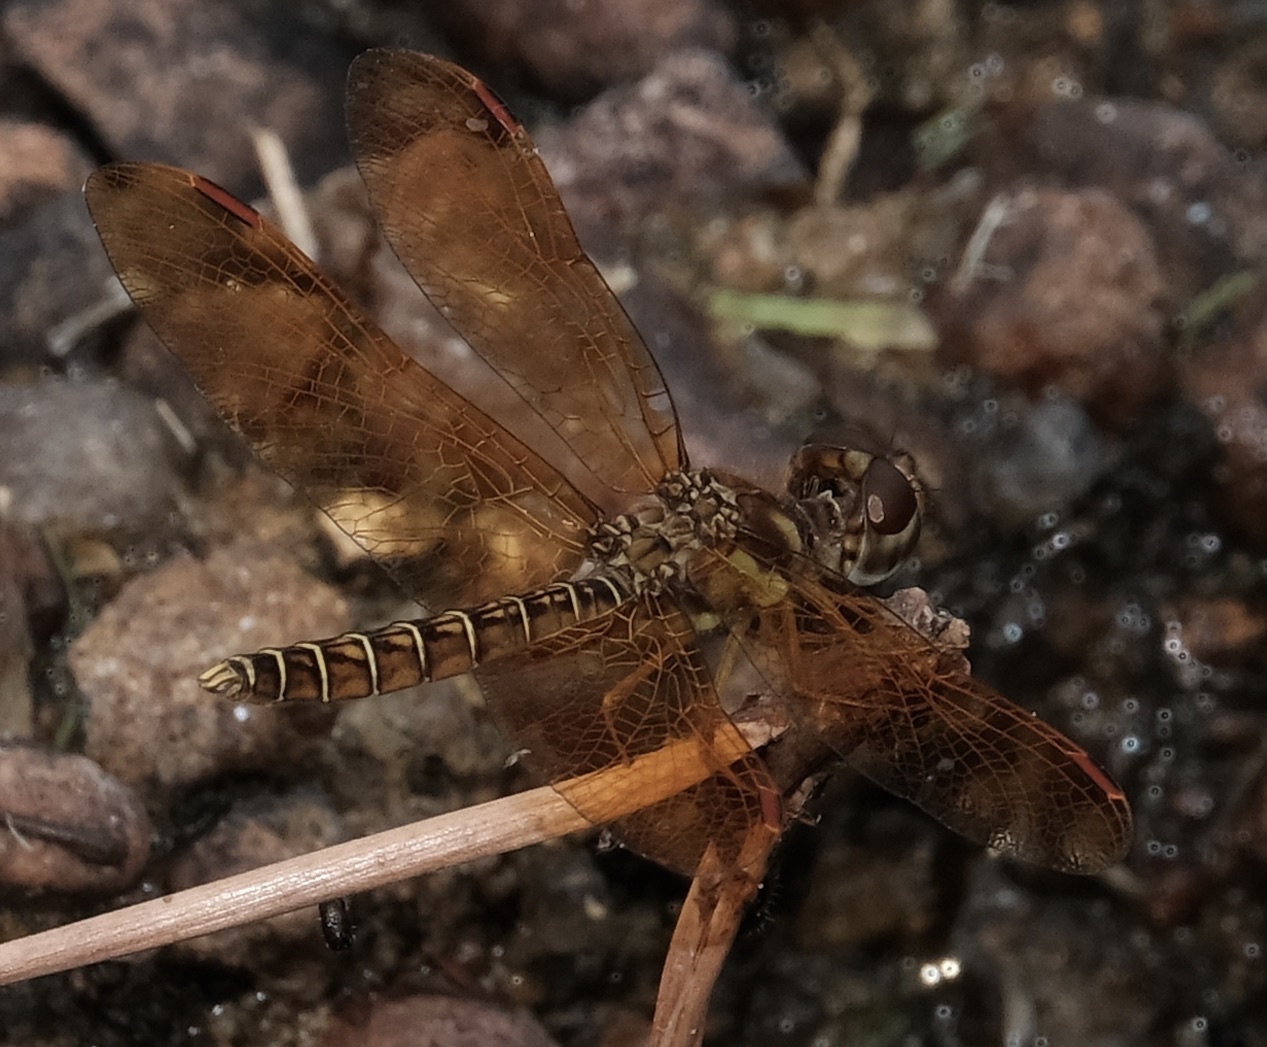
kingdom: Animalia
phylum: Arthropoda
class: Insecta
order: Odonata
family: Libellulidae
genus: Perithemis
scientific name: Perithemis tenera
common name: Eastern amberwing
